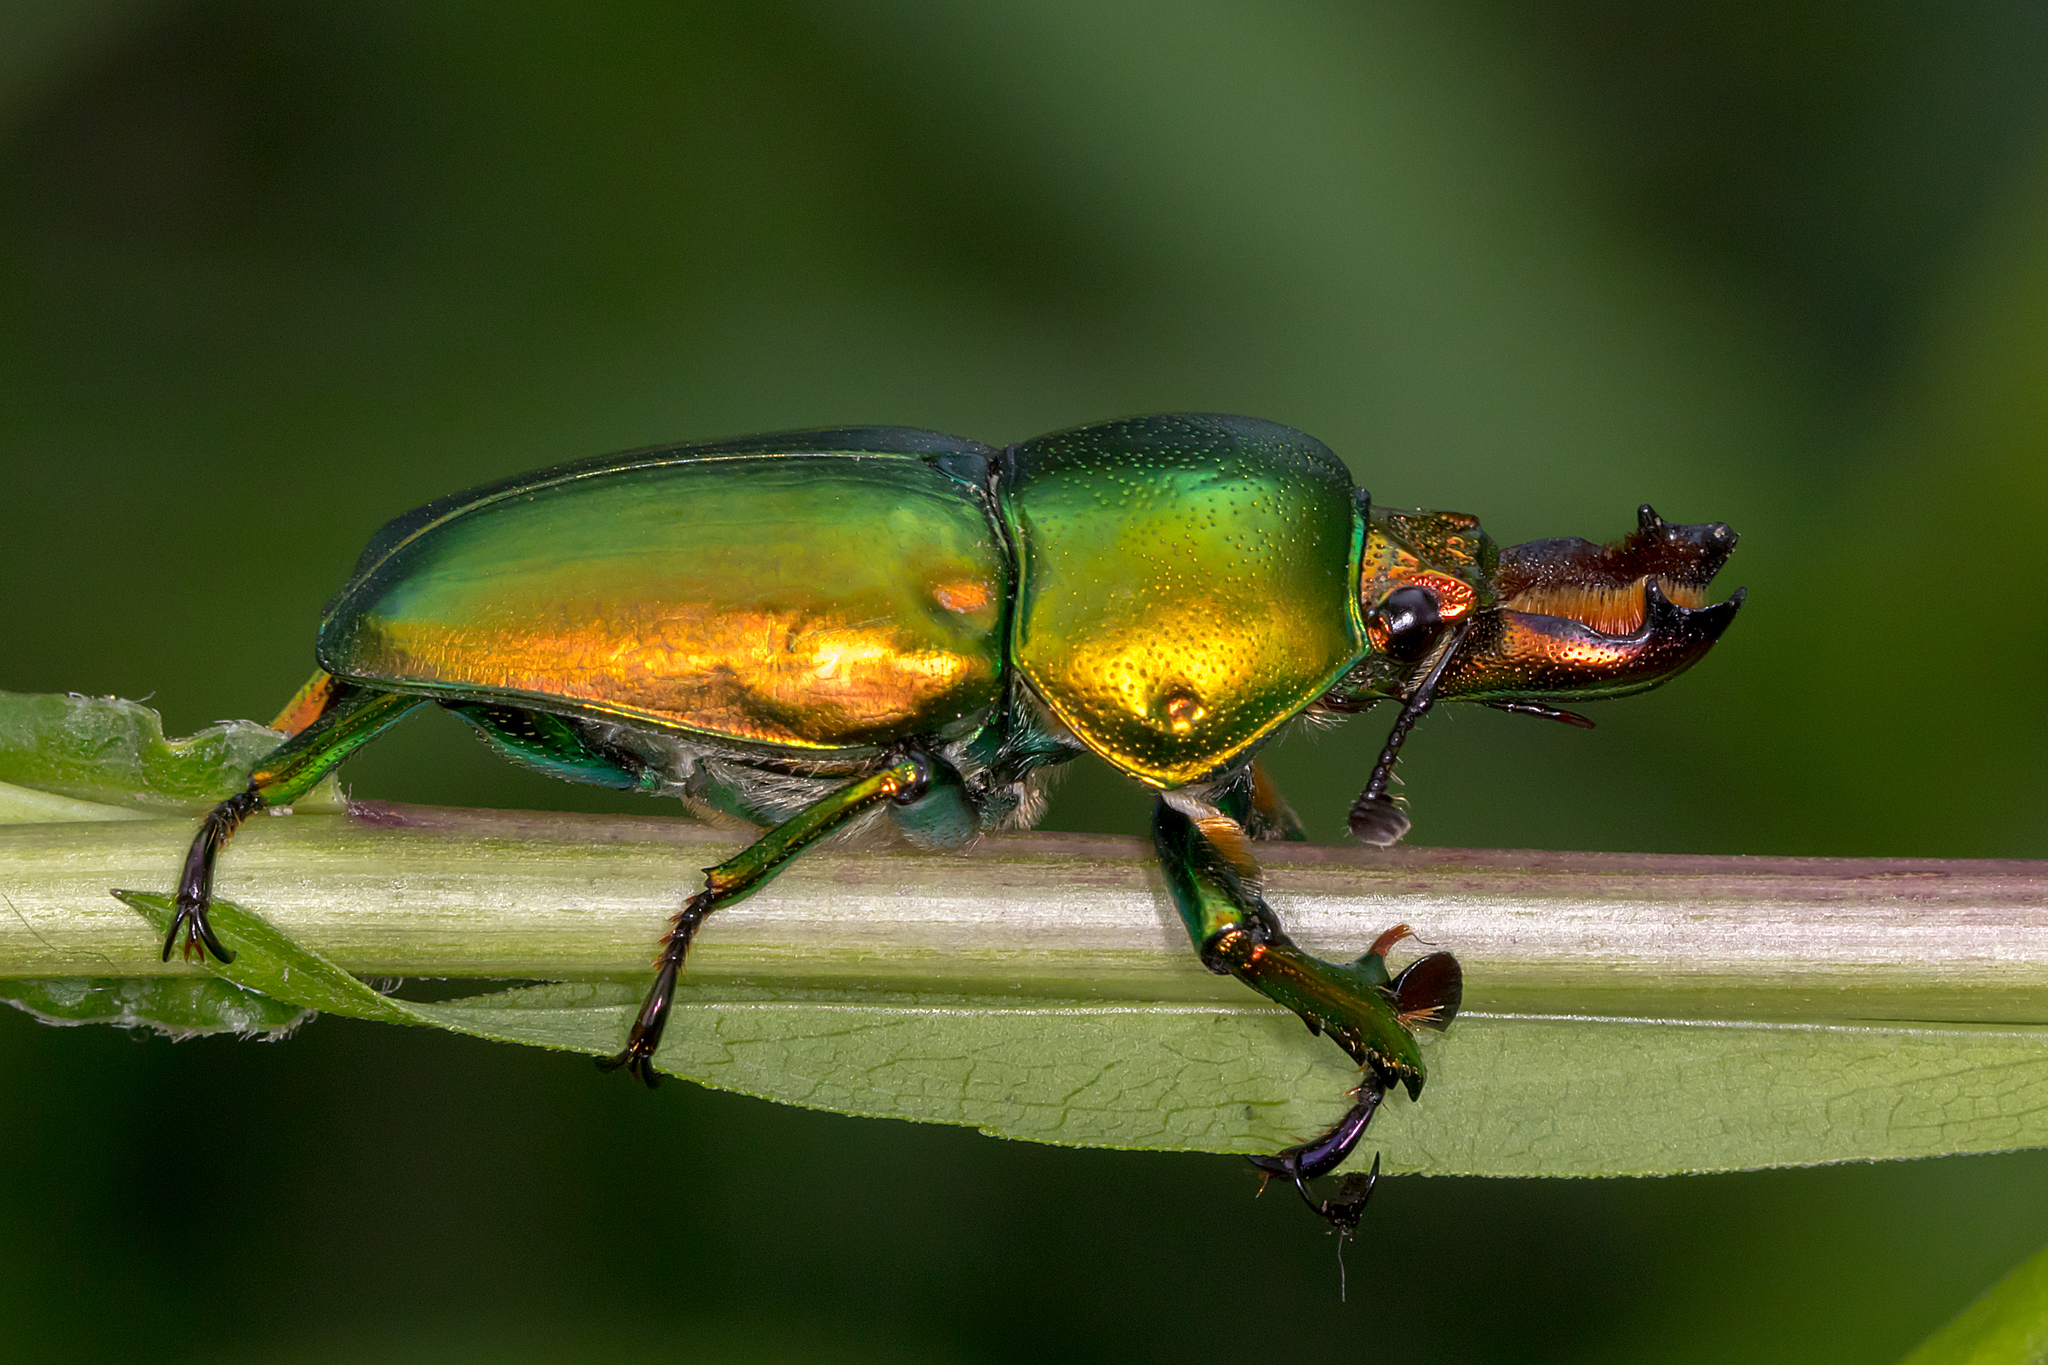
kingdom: Animalia
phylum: Arthropoda
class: Insecta
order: Coleoptera
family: Lucanidae
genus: Lamprima
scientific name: Lamprima aurata
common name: Golden stag beetle
